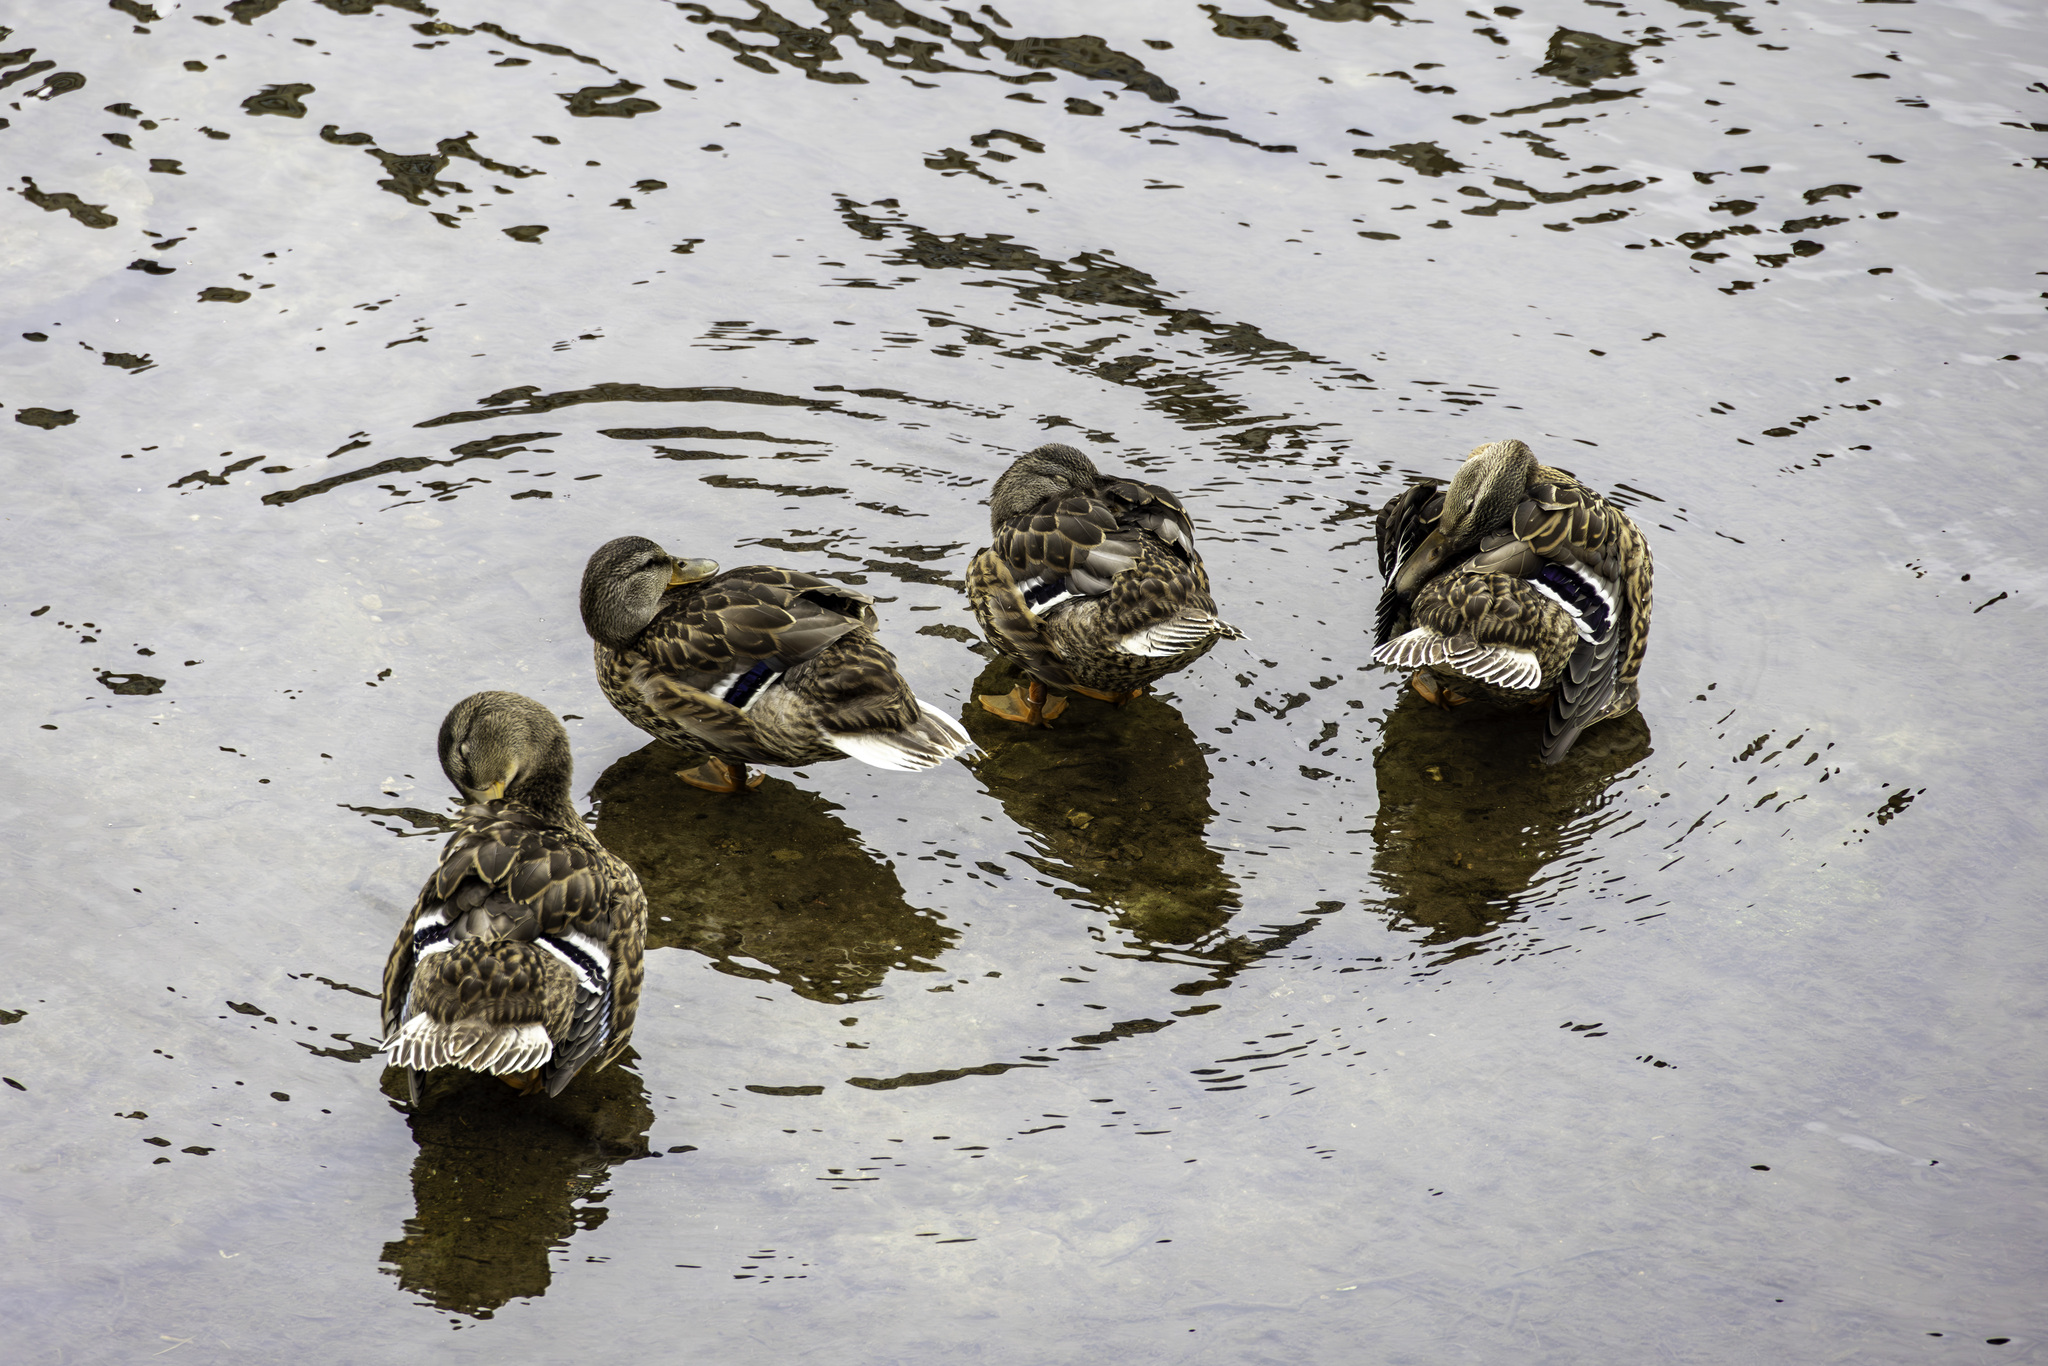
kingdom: Animalia
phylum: Chordata
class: Aves
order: Anseriformes
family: Anatidae
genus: Anas
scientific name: Anas platyrhynchos
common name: Mallard
